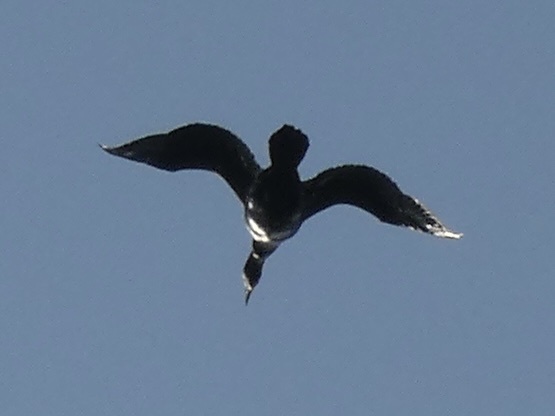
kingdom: Animalia
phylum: Chordata
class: Aves
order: Suliformes
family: Phalacrocoracidae
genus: Phalacrocorax
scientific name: Phalacrocorax carbo
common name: Great cormorant
